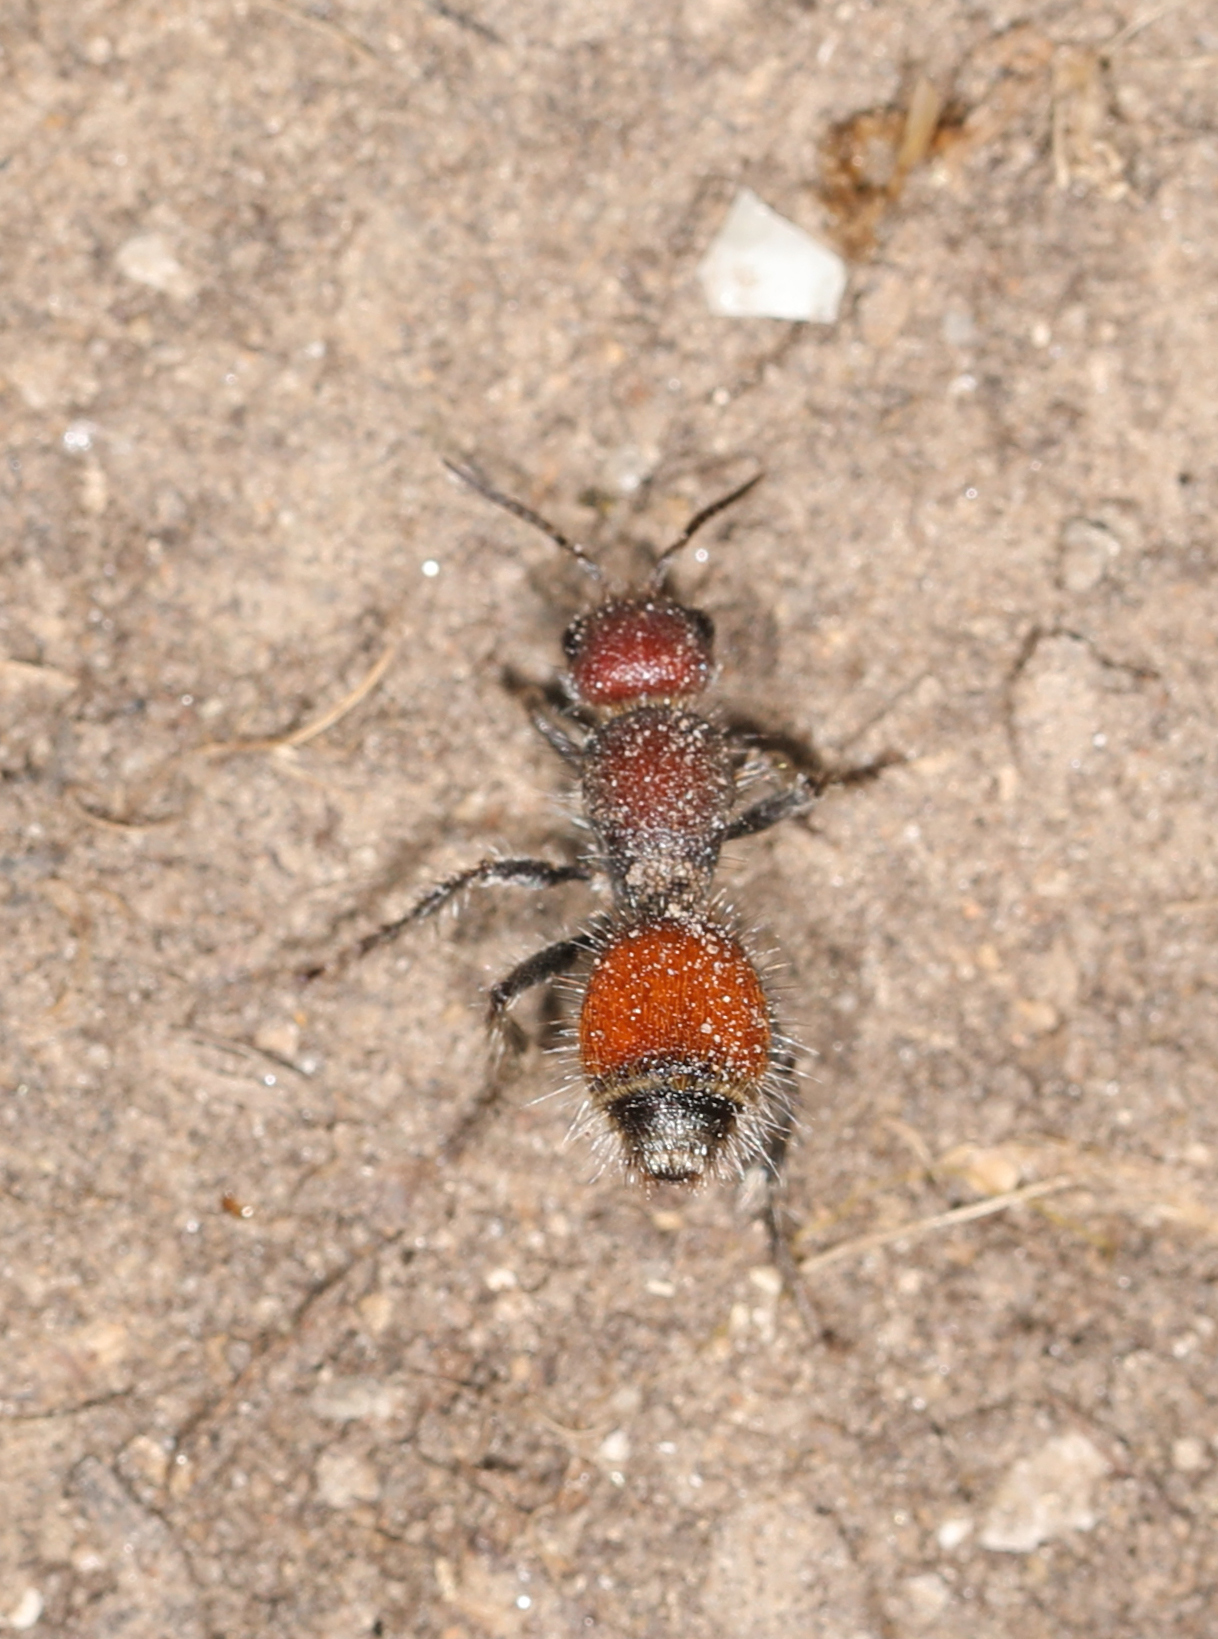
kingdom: Animalia
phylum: Arthropoda
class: Insecta
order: Hymenoptera
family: Mutillidae
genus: Dasymutilla
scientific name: Dasymutilla
